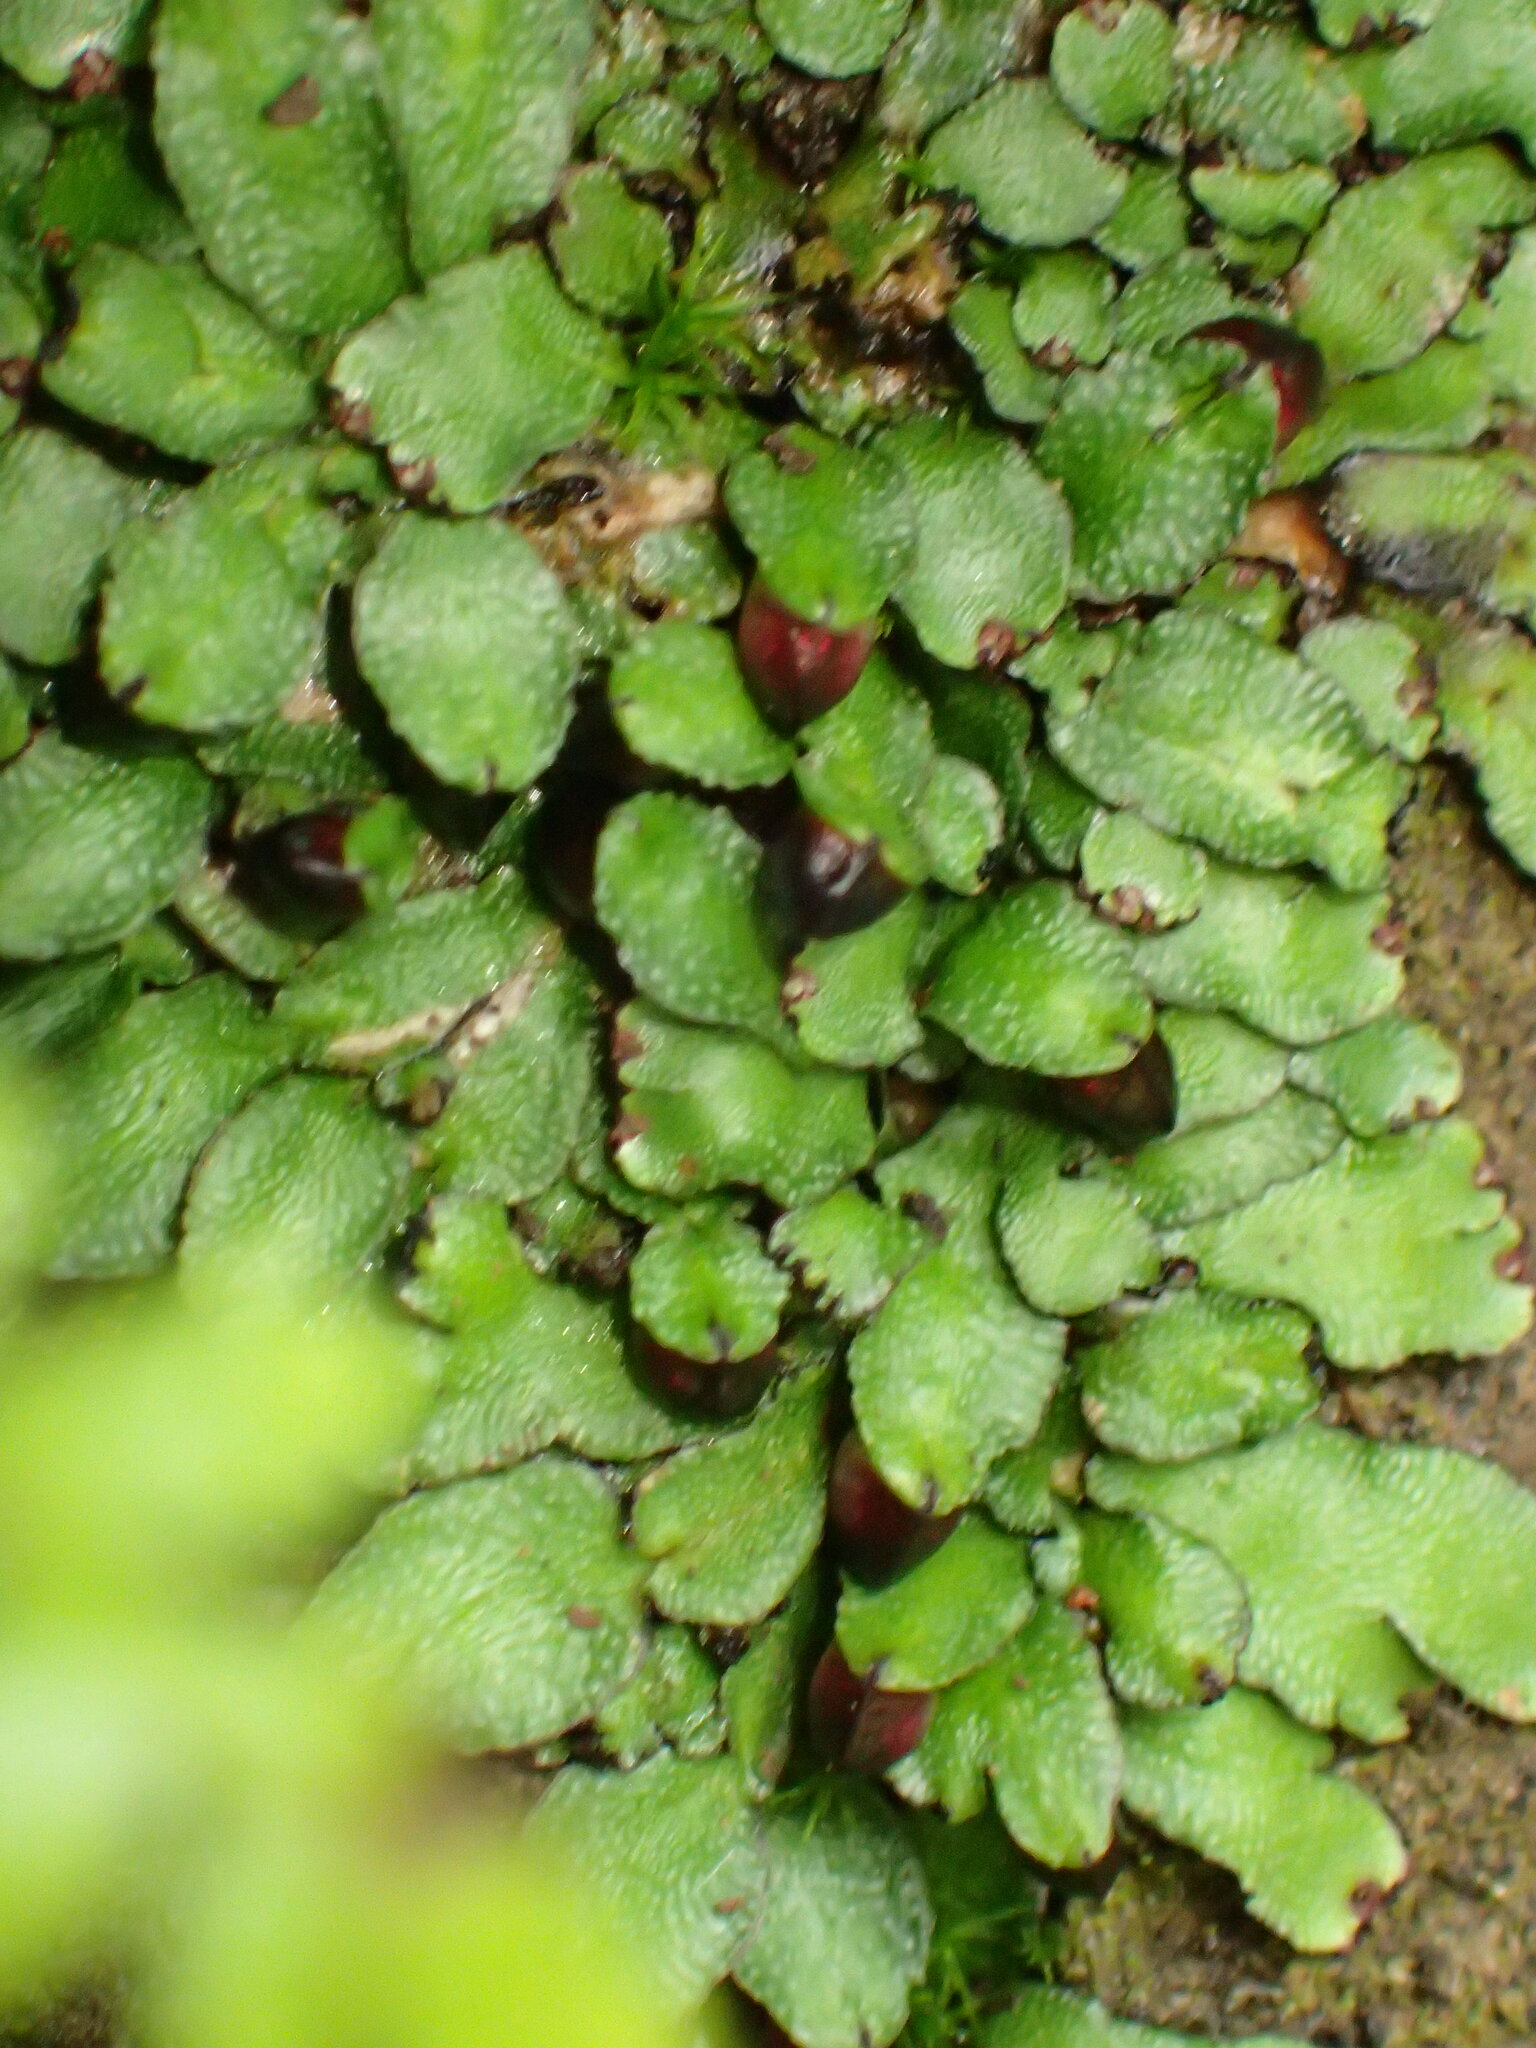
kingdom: Plantae
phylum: Marchantiophyta
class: Marchantiopsida
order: Marchantiales
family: Targioniaceae
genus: Targionia
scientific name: Targionia hypophylla
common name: Orobus-seed liverwort
